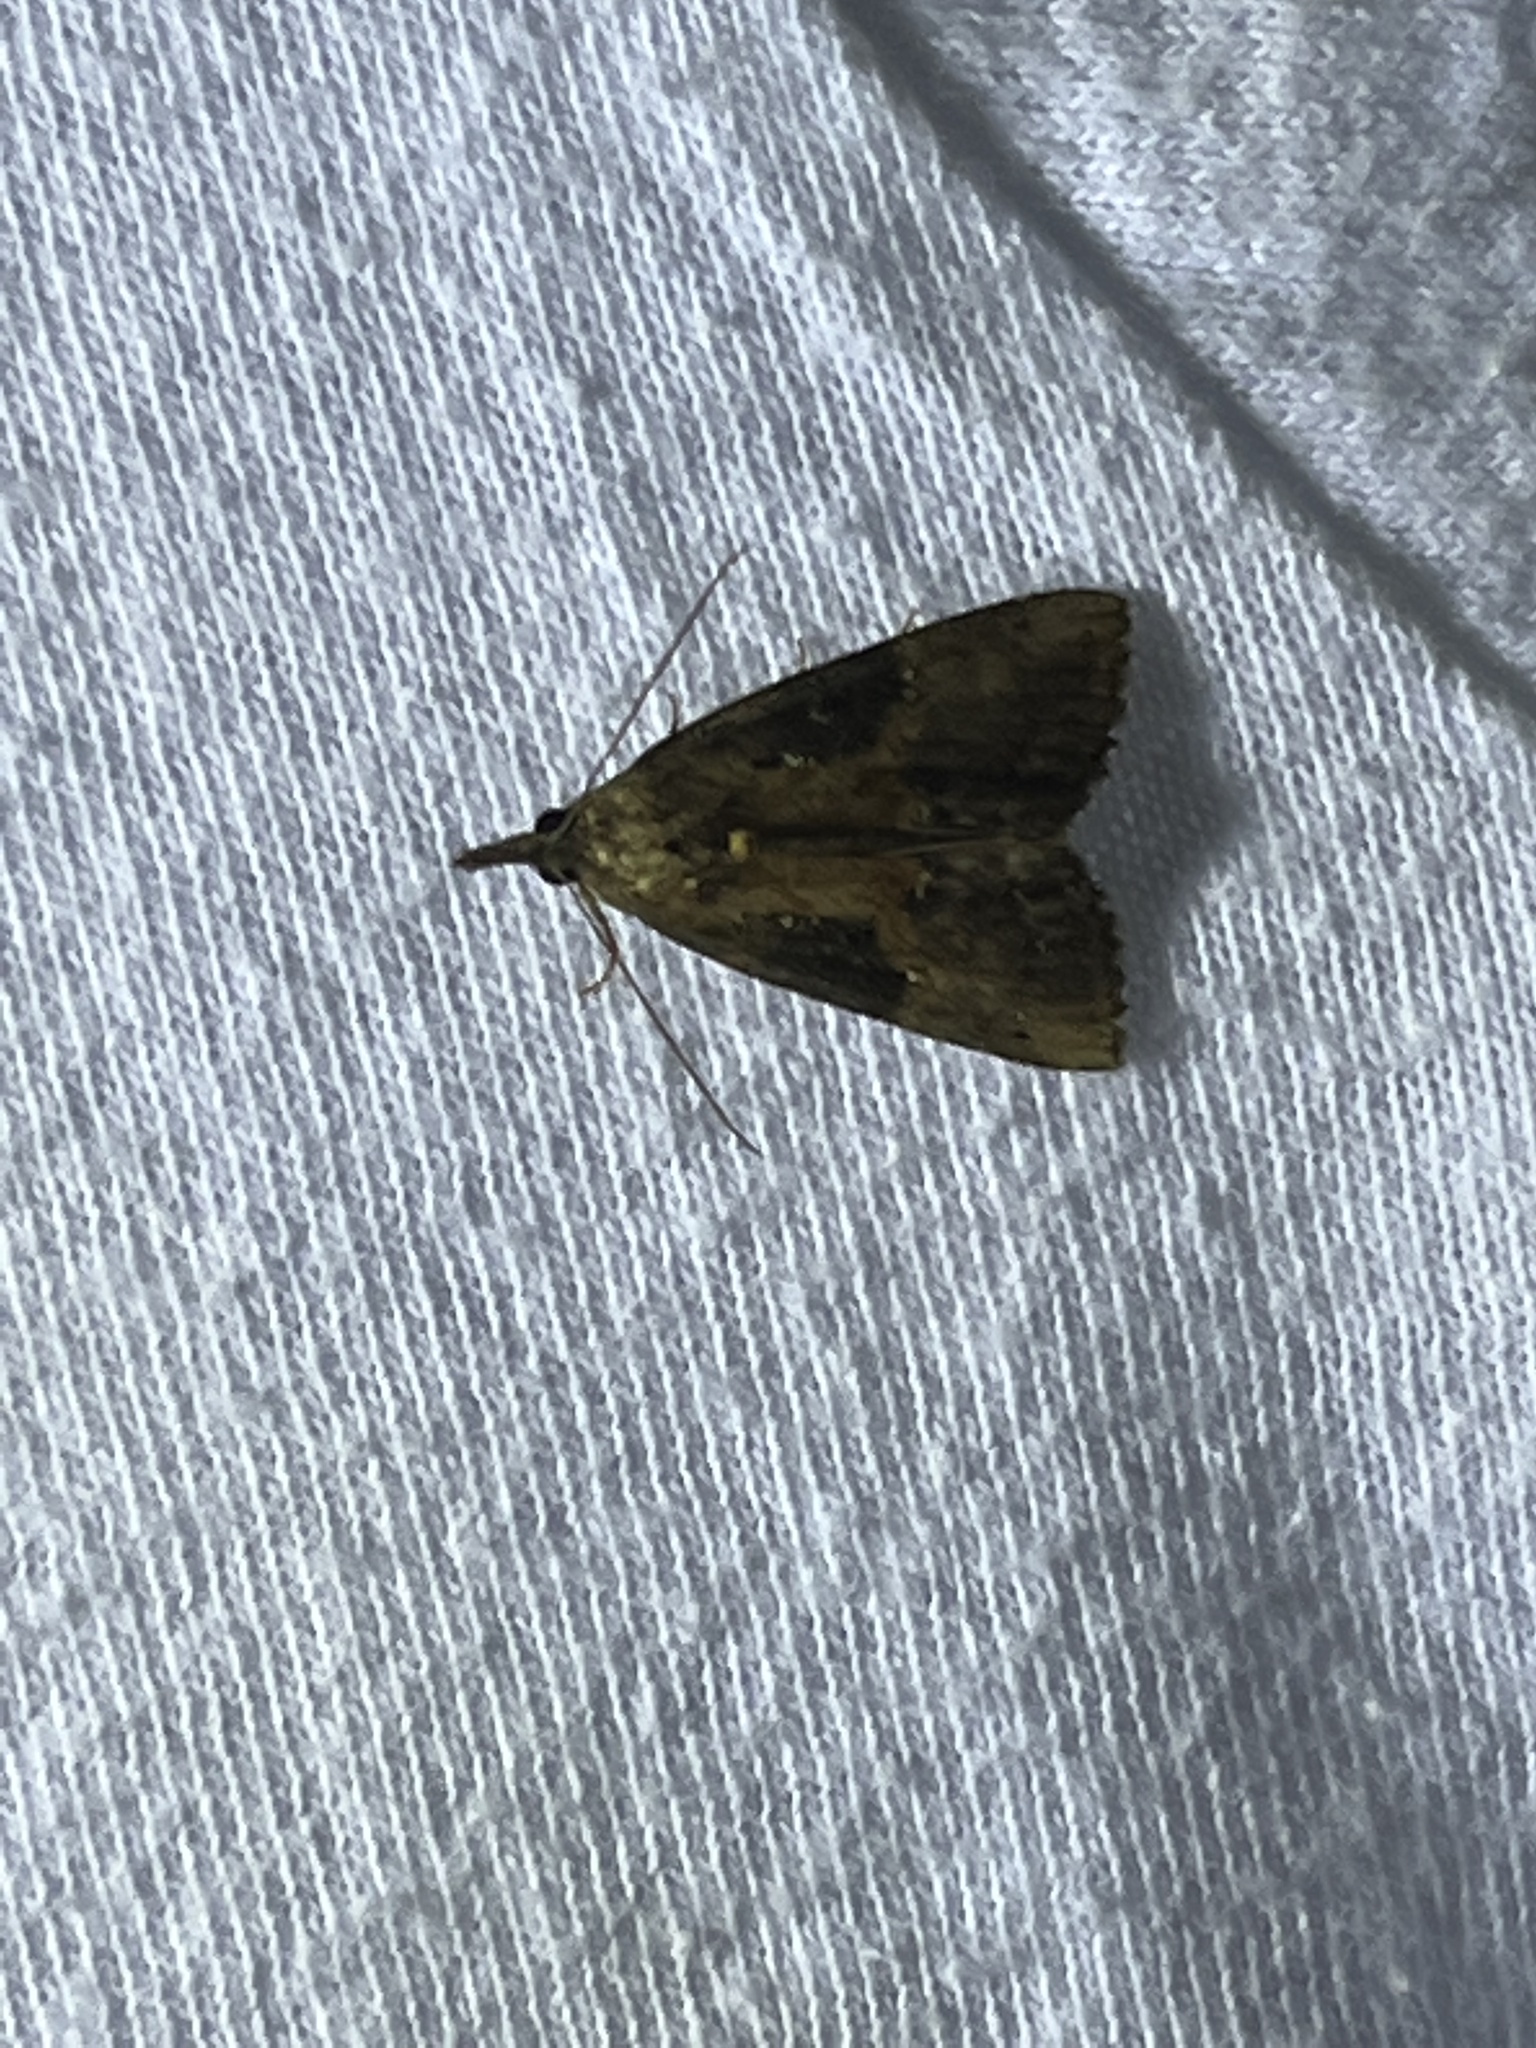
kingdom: Animalia
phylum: Arthropoda
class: Insecta
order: Lepidoptera
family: Erebidae
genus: Hypena
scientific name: Hypena scabra
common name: Green cloverworm
